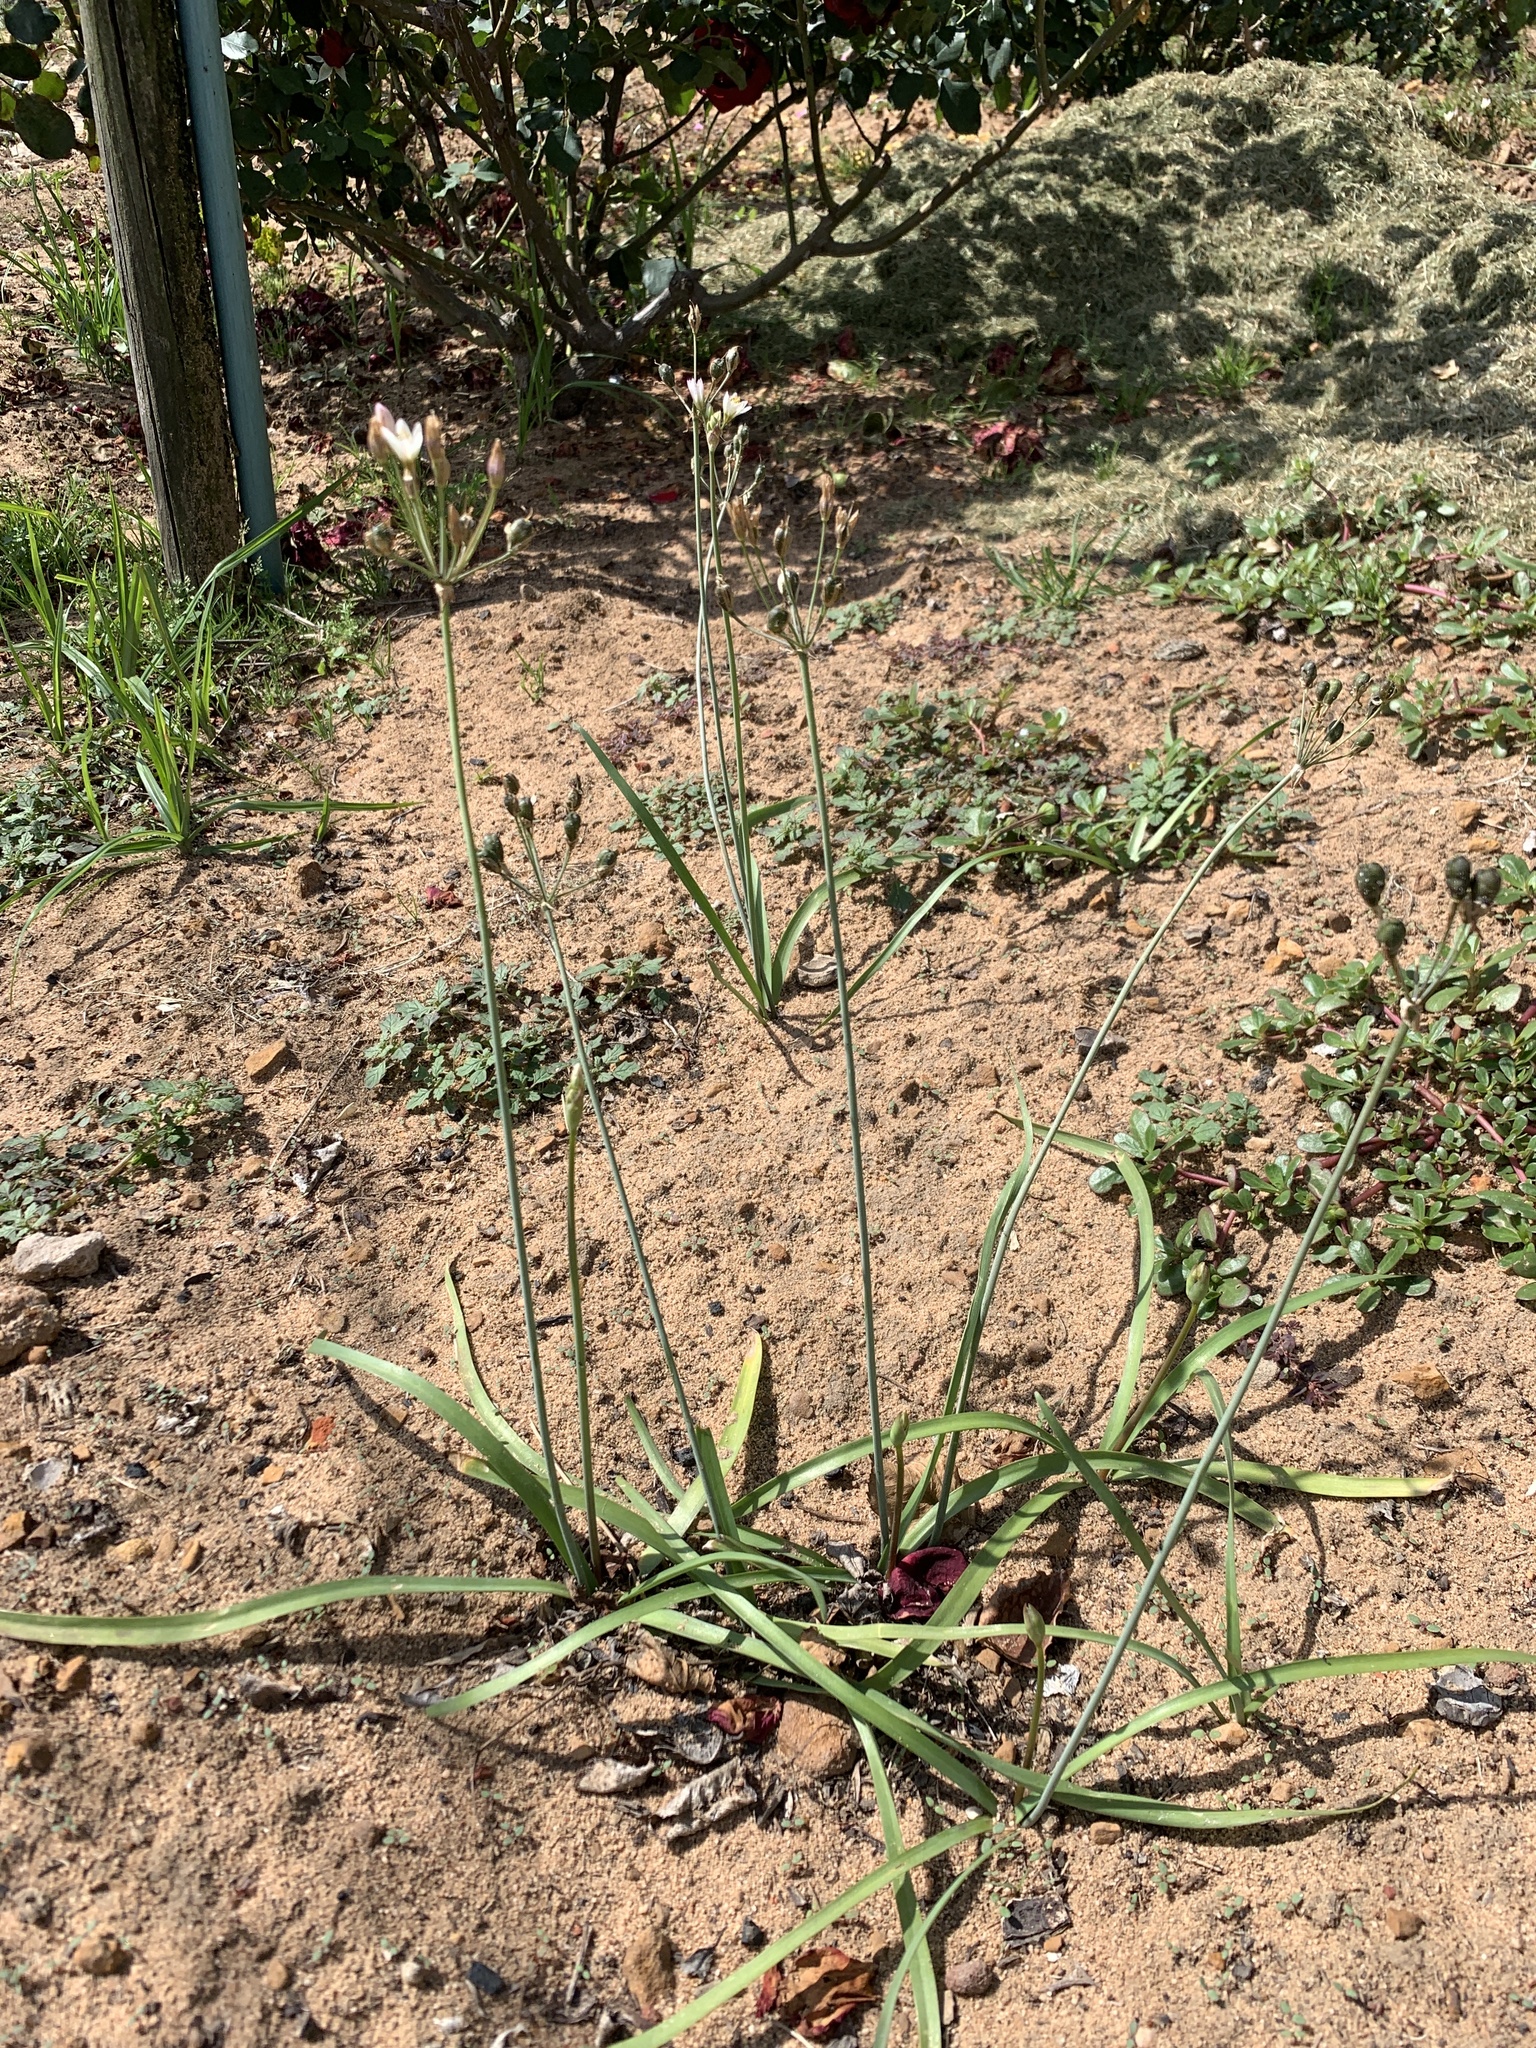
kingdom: Plantae
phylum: Tracheophyta
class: Liliopsida
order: Asparagales
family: Amaryllidaceae
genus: Nothoscordum
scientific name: Nothoscordum gracile
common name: Slender false garlic
